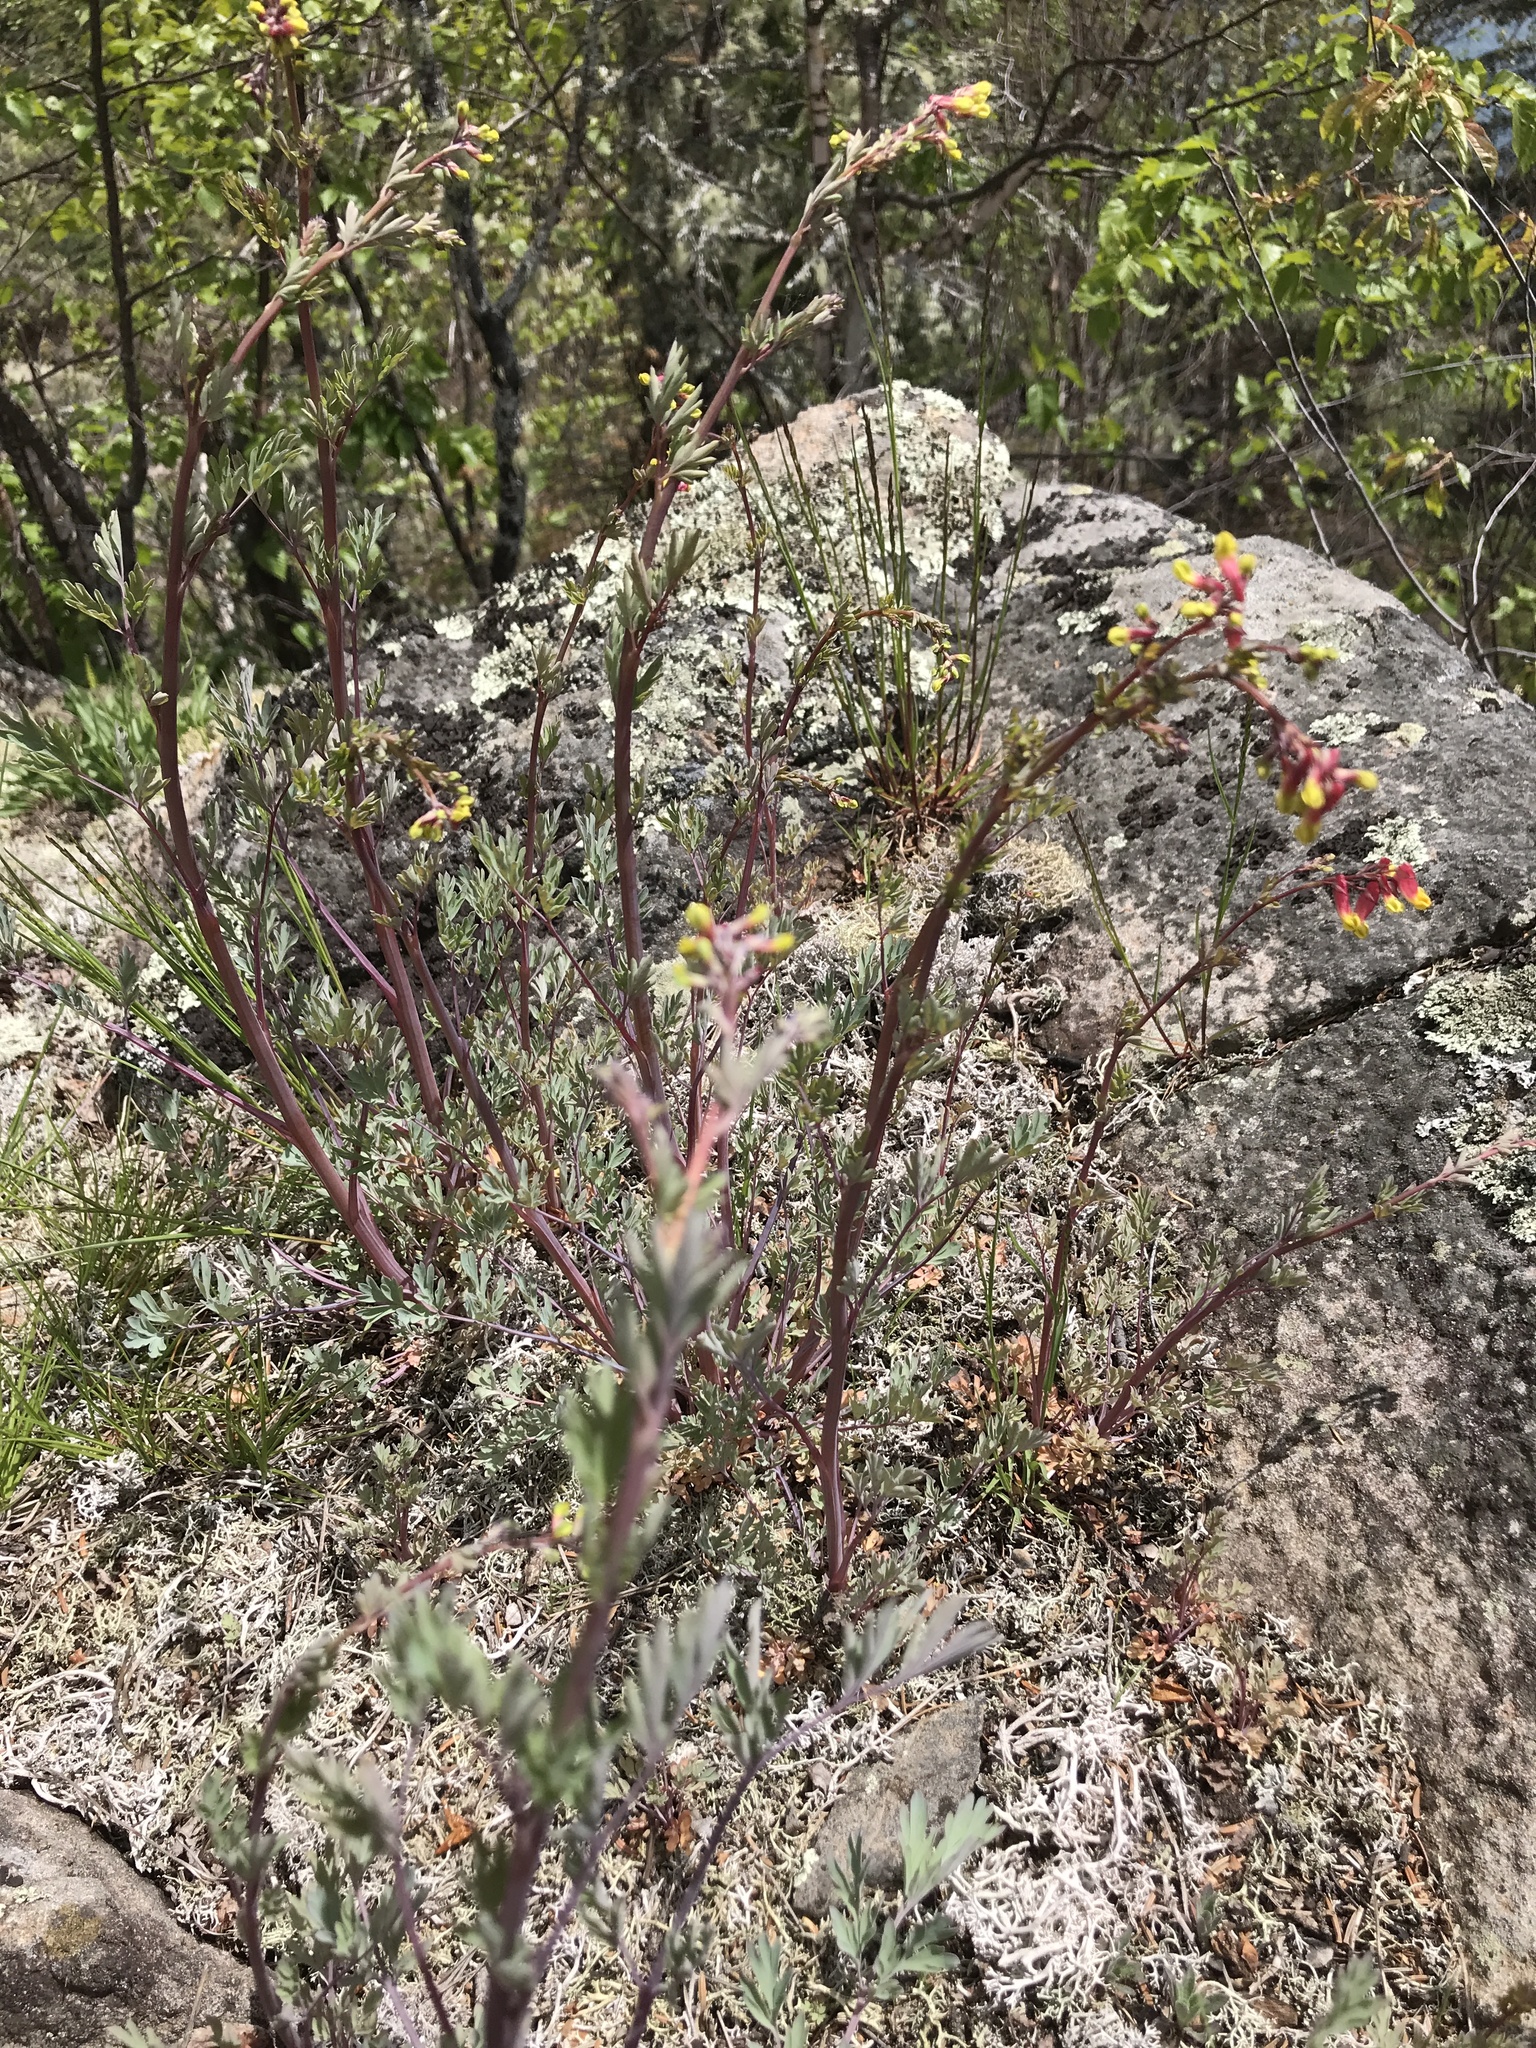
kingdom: Plantae
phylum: Tracheophyta
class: Magnoliopsida
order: Ranunculales
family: Papaveraceae
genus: Capnoides
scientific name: Capnoides sempervirens
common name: Rock harlequin
